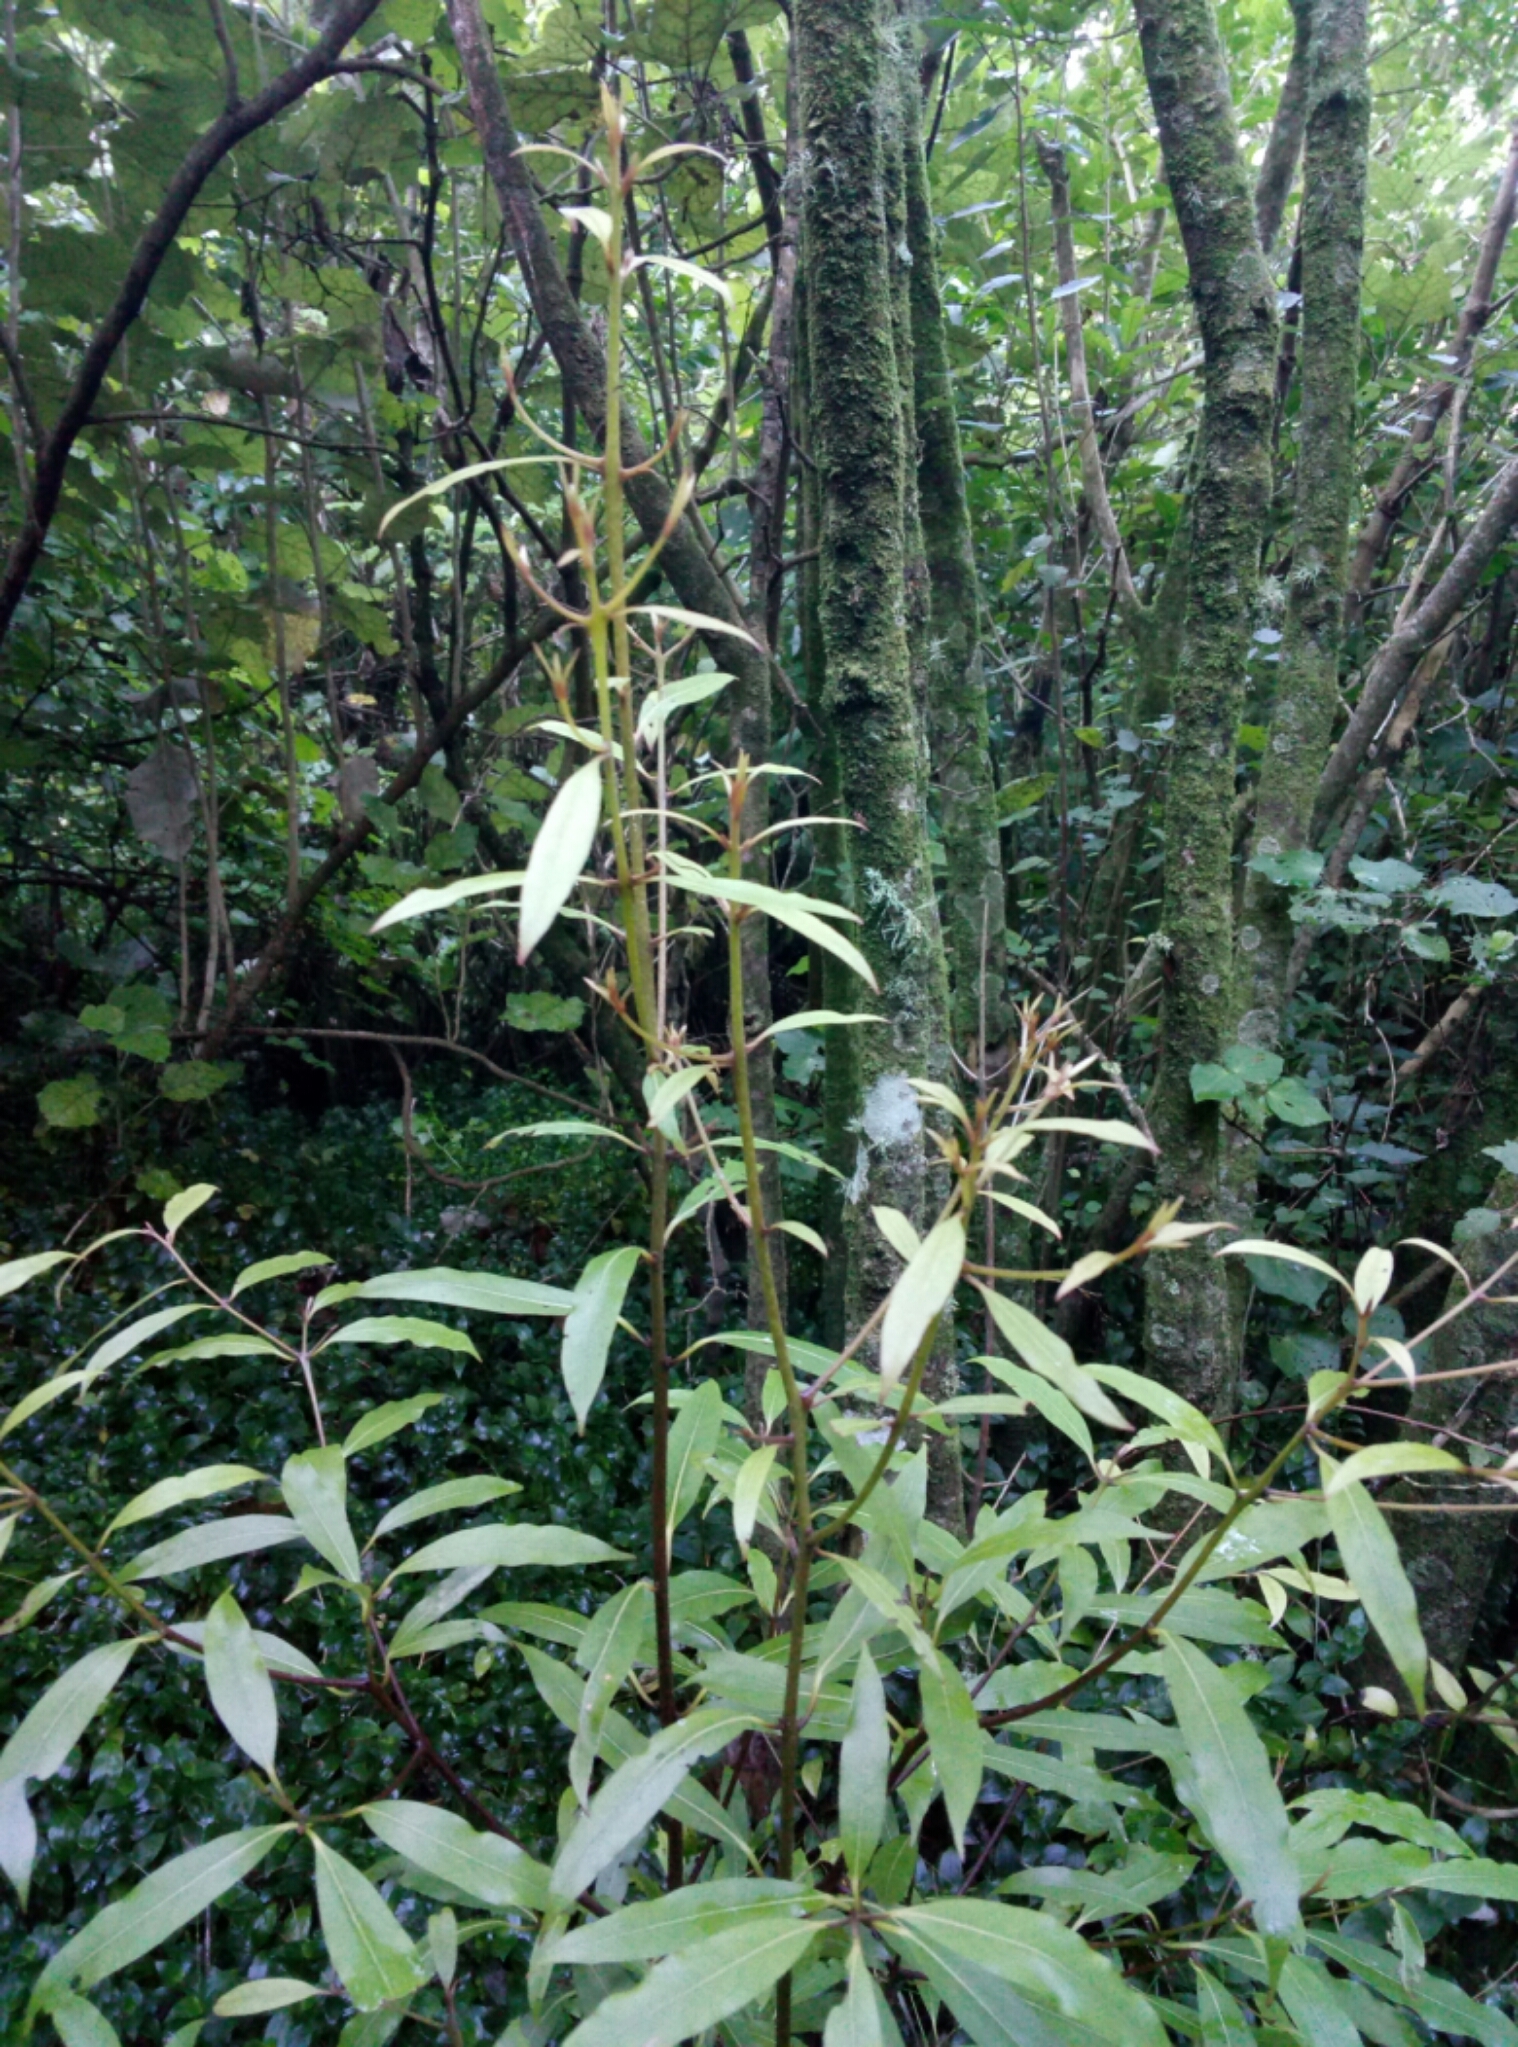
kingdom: Plantae
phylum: Tracheophyta
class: Magnoliopsida
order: Laurales
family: Lauraceae
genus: Beilschmiedia
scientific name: Beilschmiedia tawa
